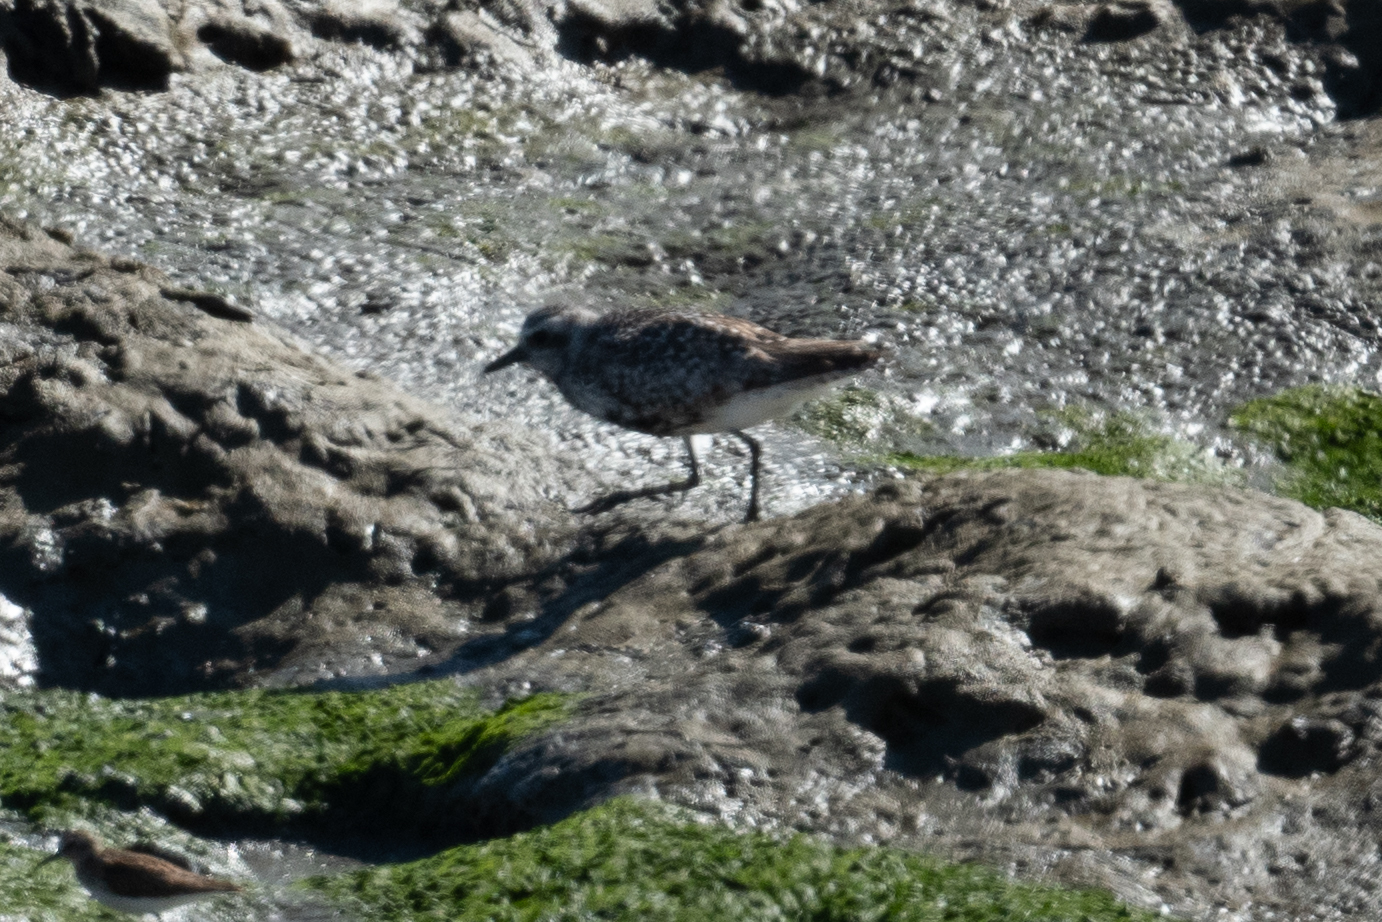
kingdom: Animalia
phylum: Chordata
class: Aves
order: Charadriiformes
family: Charadriidae
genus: Pluvialis
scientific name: Pluvialis squatarola
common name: Grey plover
